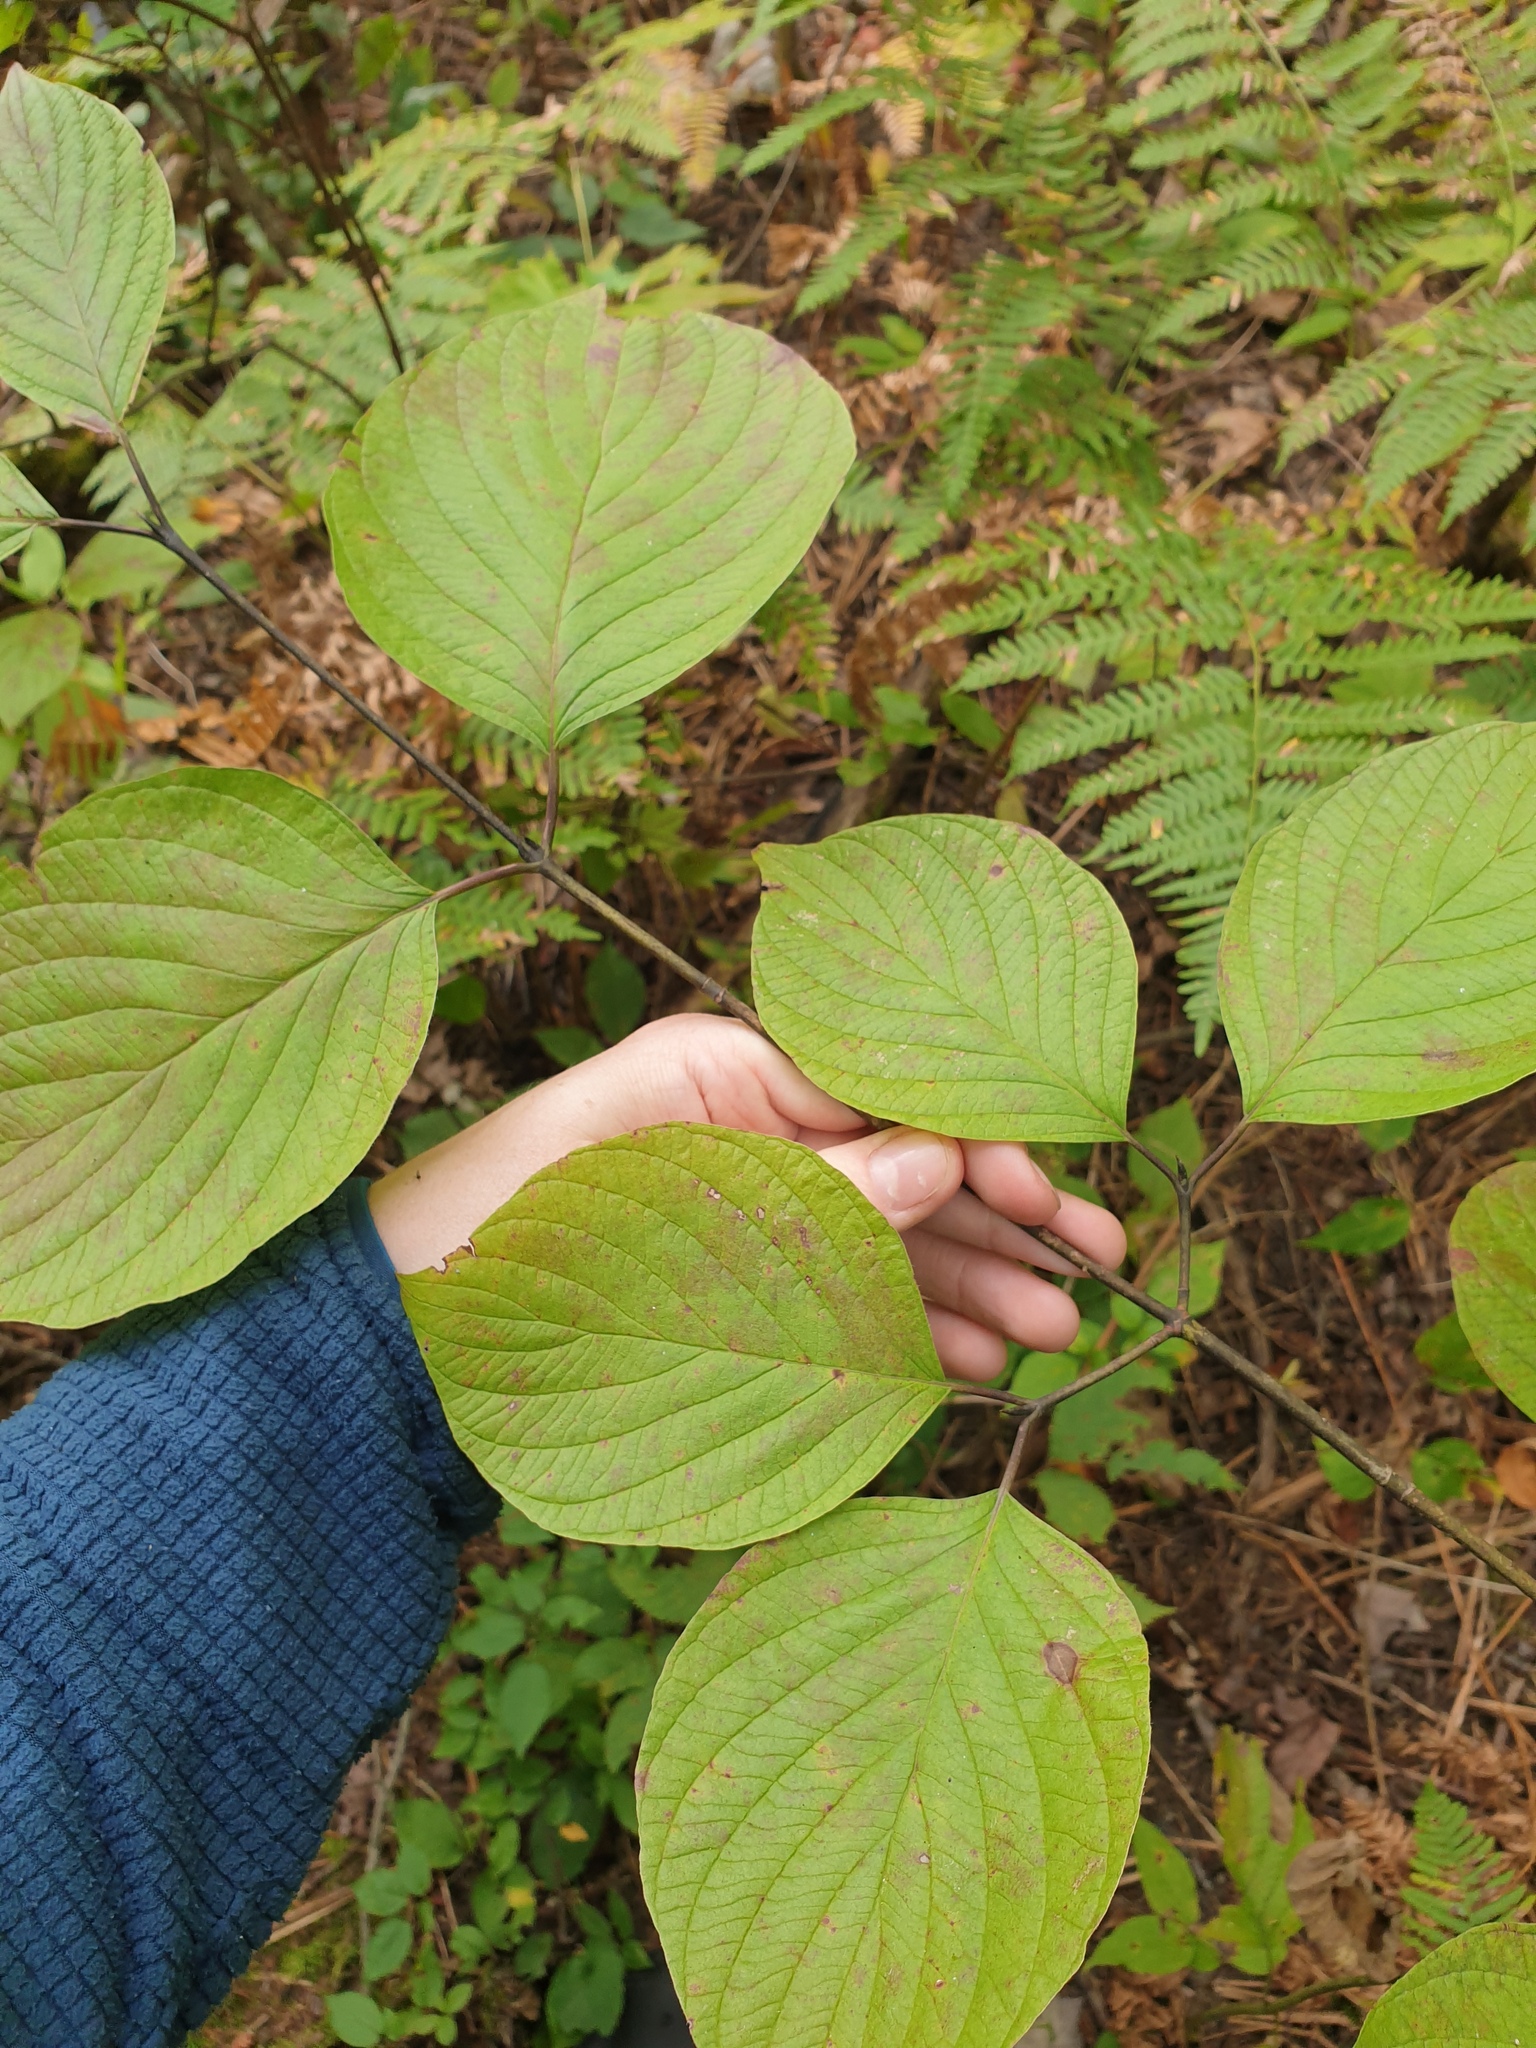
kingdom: Plantae
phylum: Tracheophyta
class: Magnoliopsida
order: Cornales
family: Cornaceae
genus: Cornus
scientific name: Cornus rugosa
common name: Round-leaf dogwood
